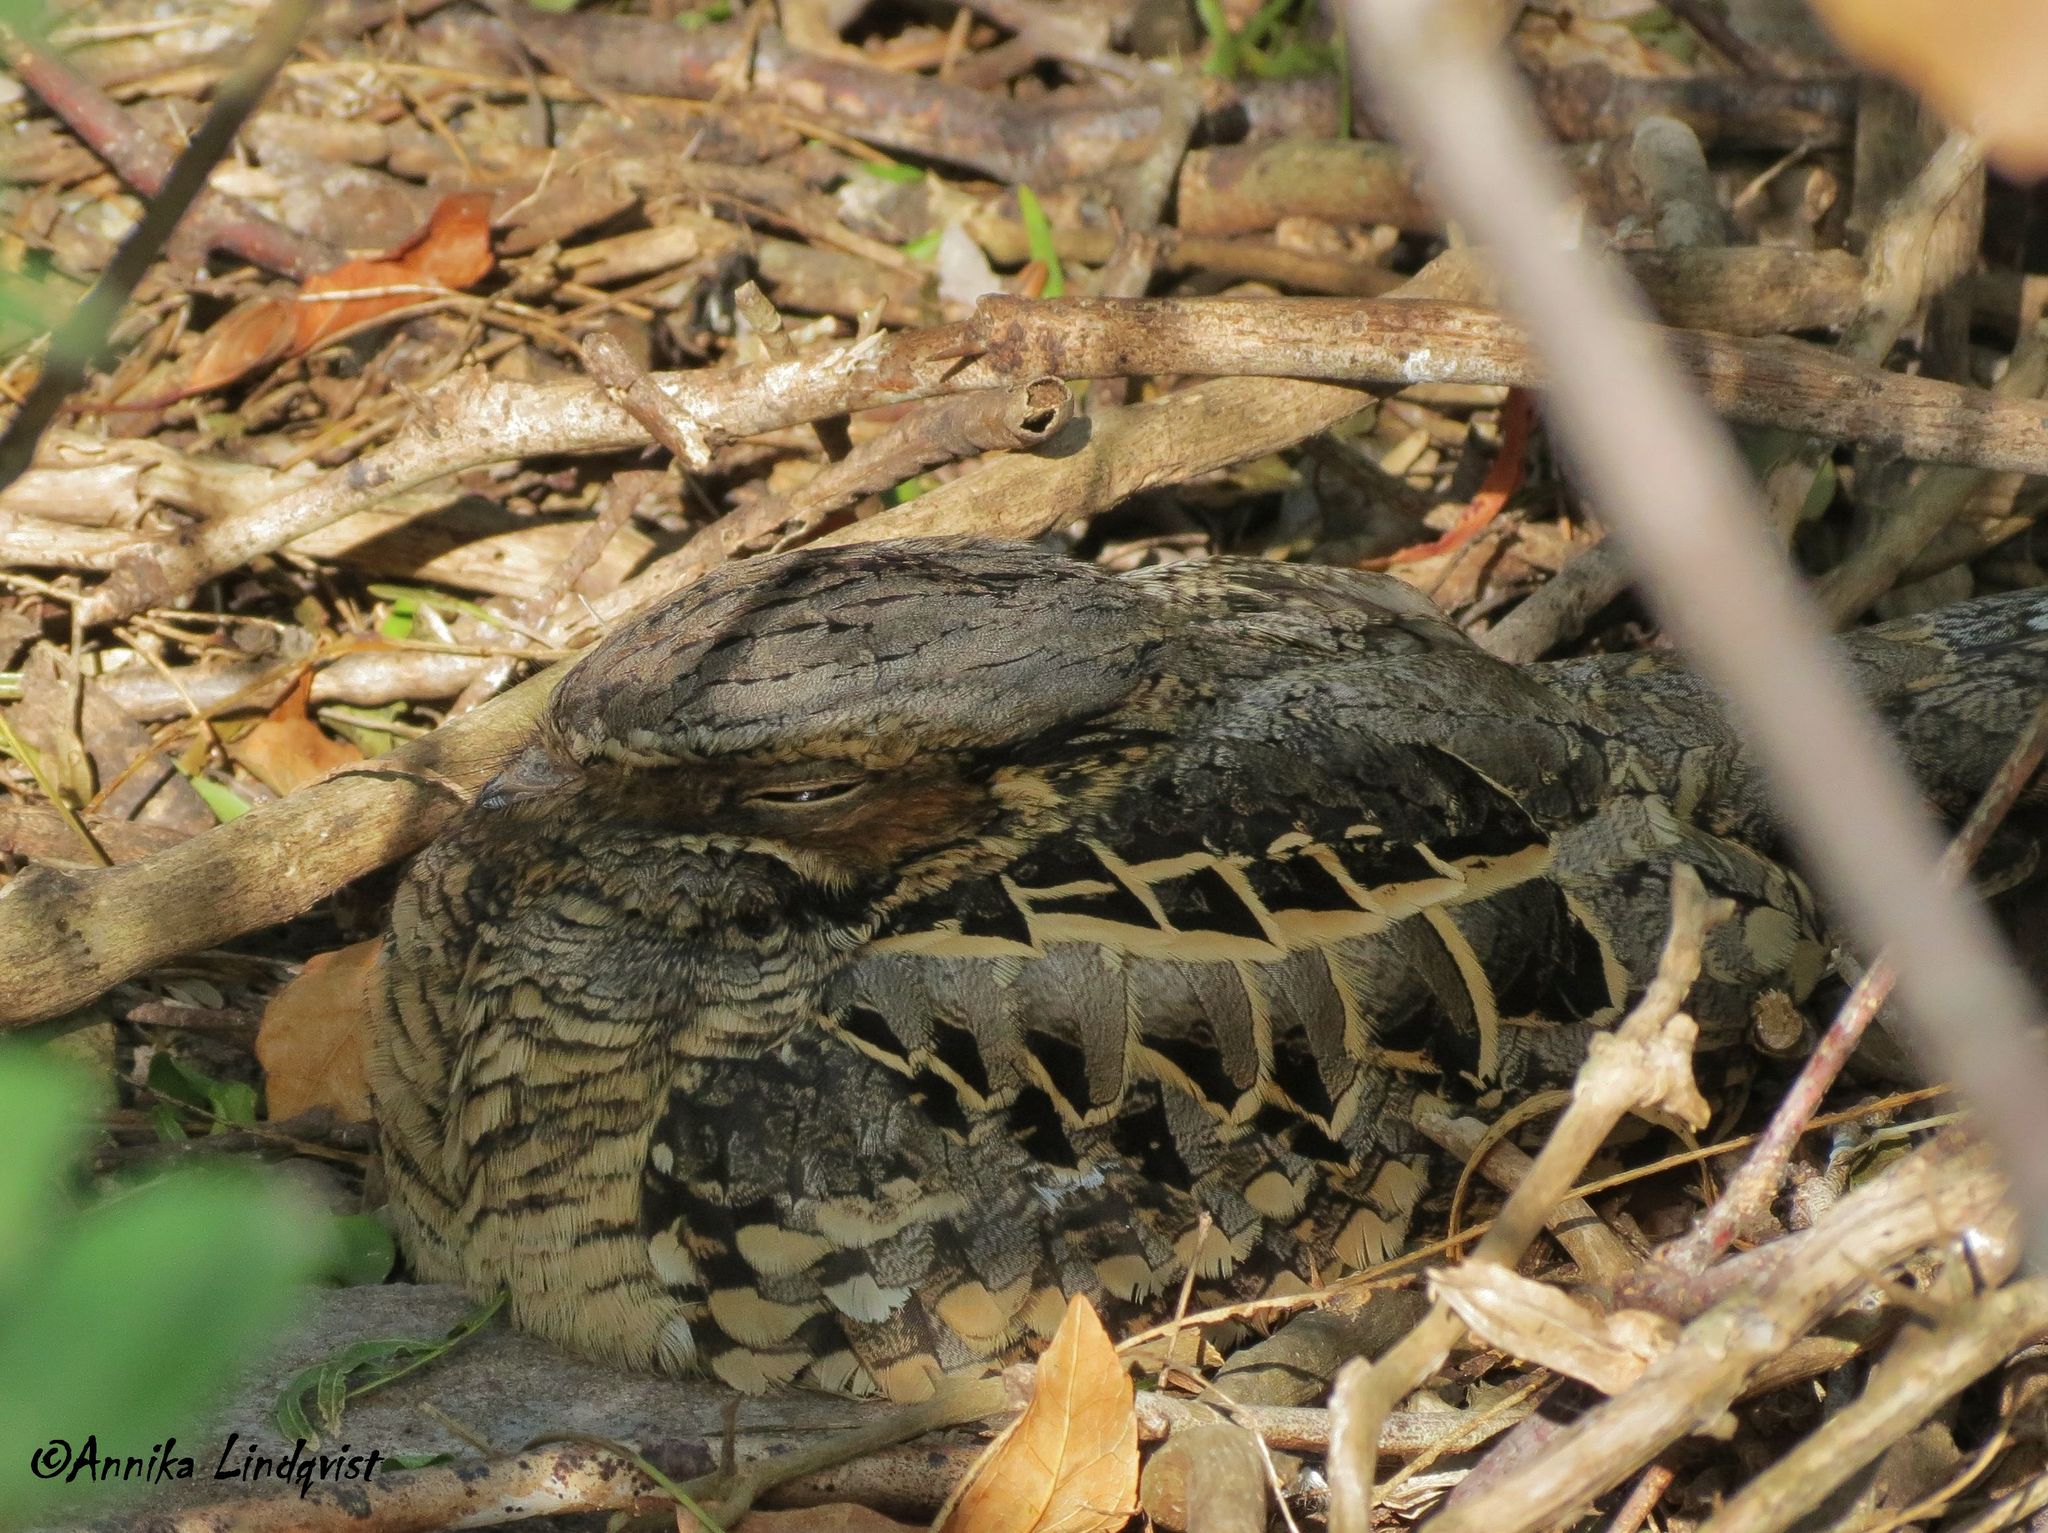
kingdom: Animalia
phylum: Chordata
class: Aves
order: Caprimulgiformes
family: Caprimulgidae
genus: Nyctidromus
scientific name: Nyctidromus albicollis
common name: Pauraque
